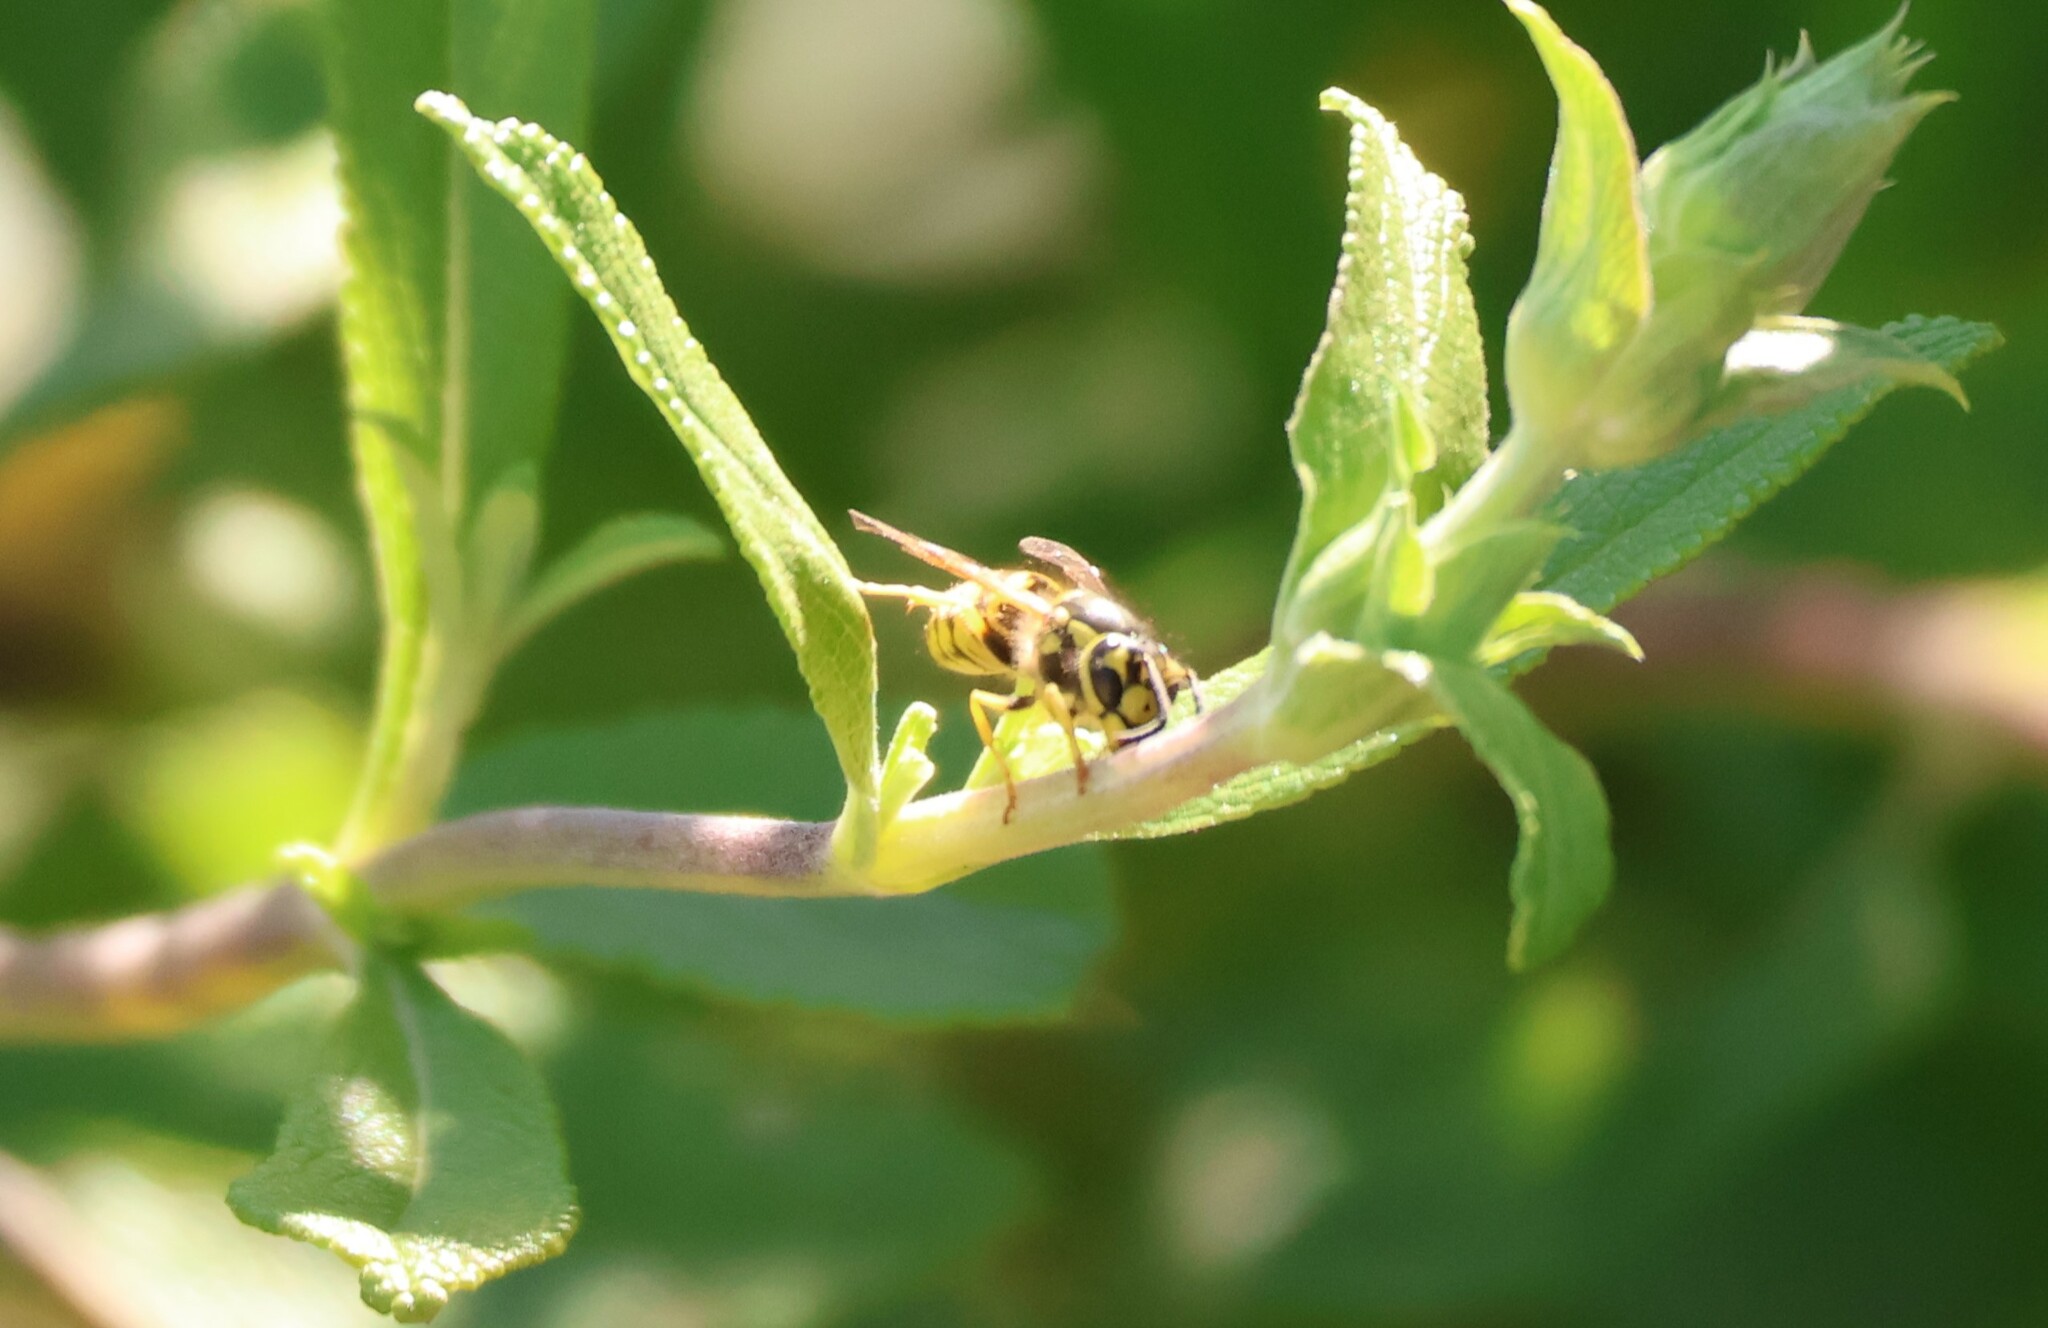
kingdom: Animalia
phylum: Arthropoda
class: Insecta
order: Hymenoptera
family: Vespidae
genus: Vespula
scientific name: Vespula pensylvanica
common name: Western yellowjacket
